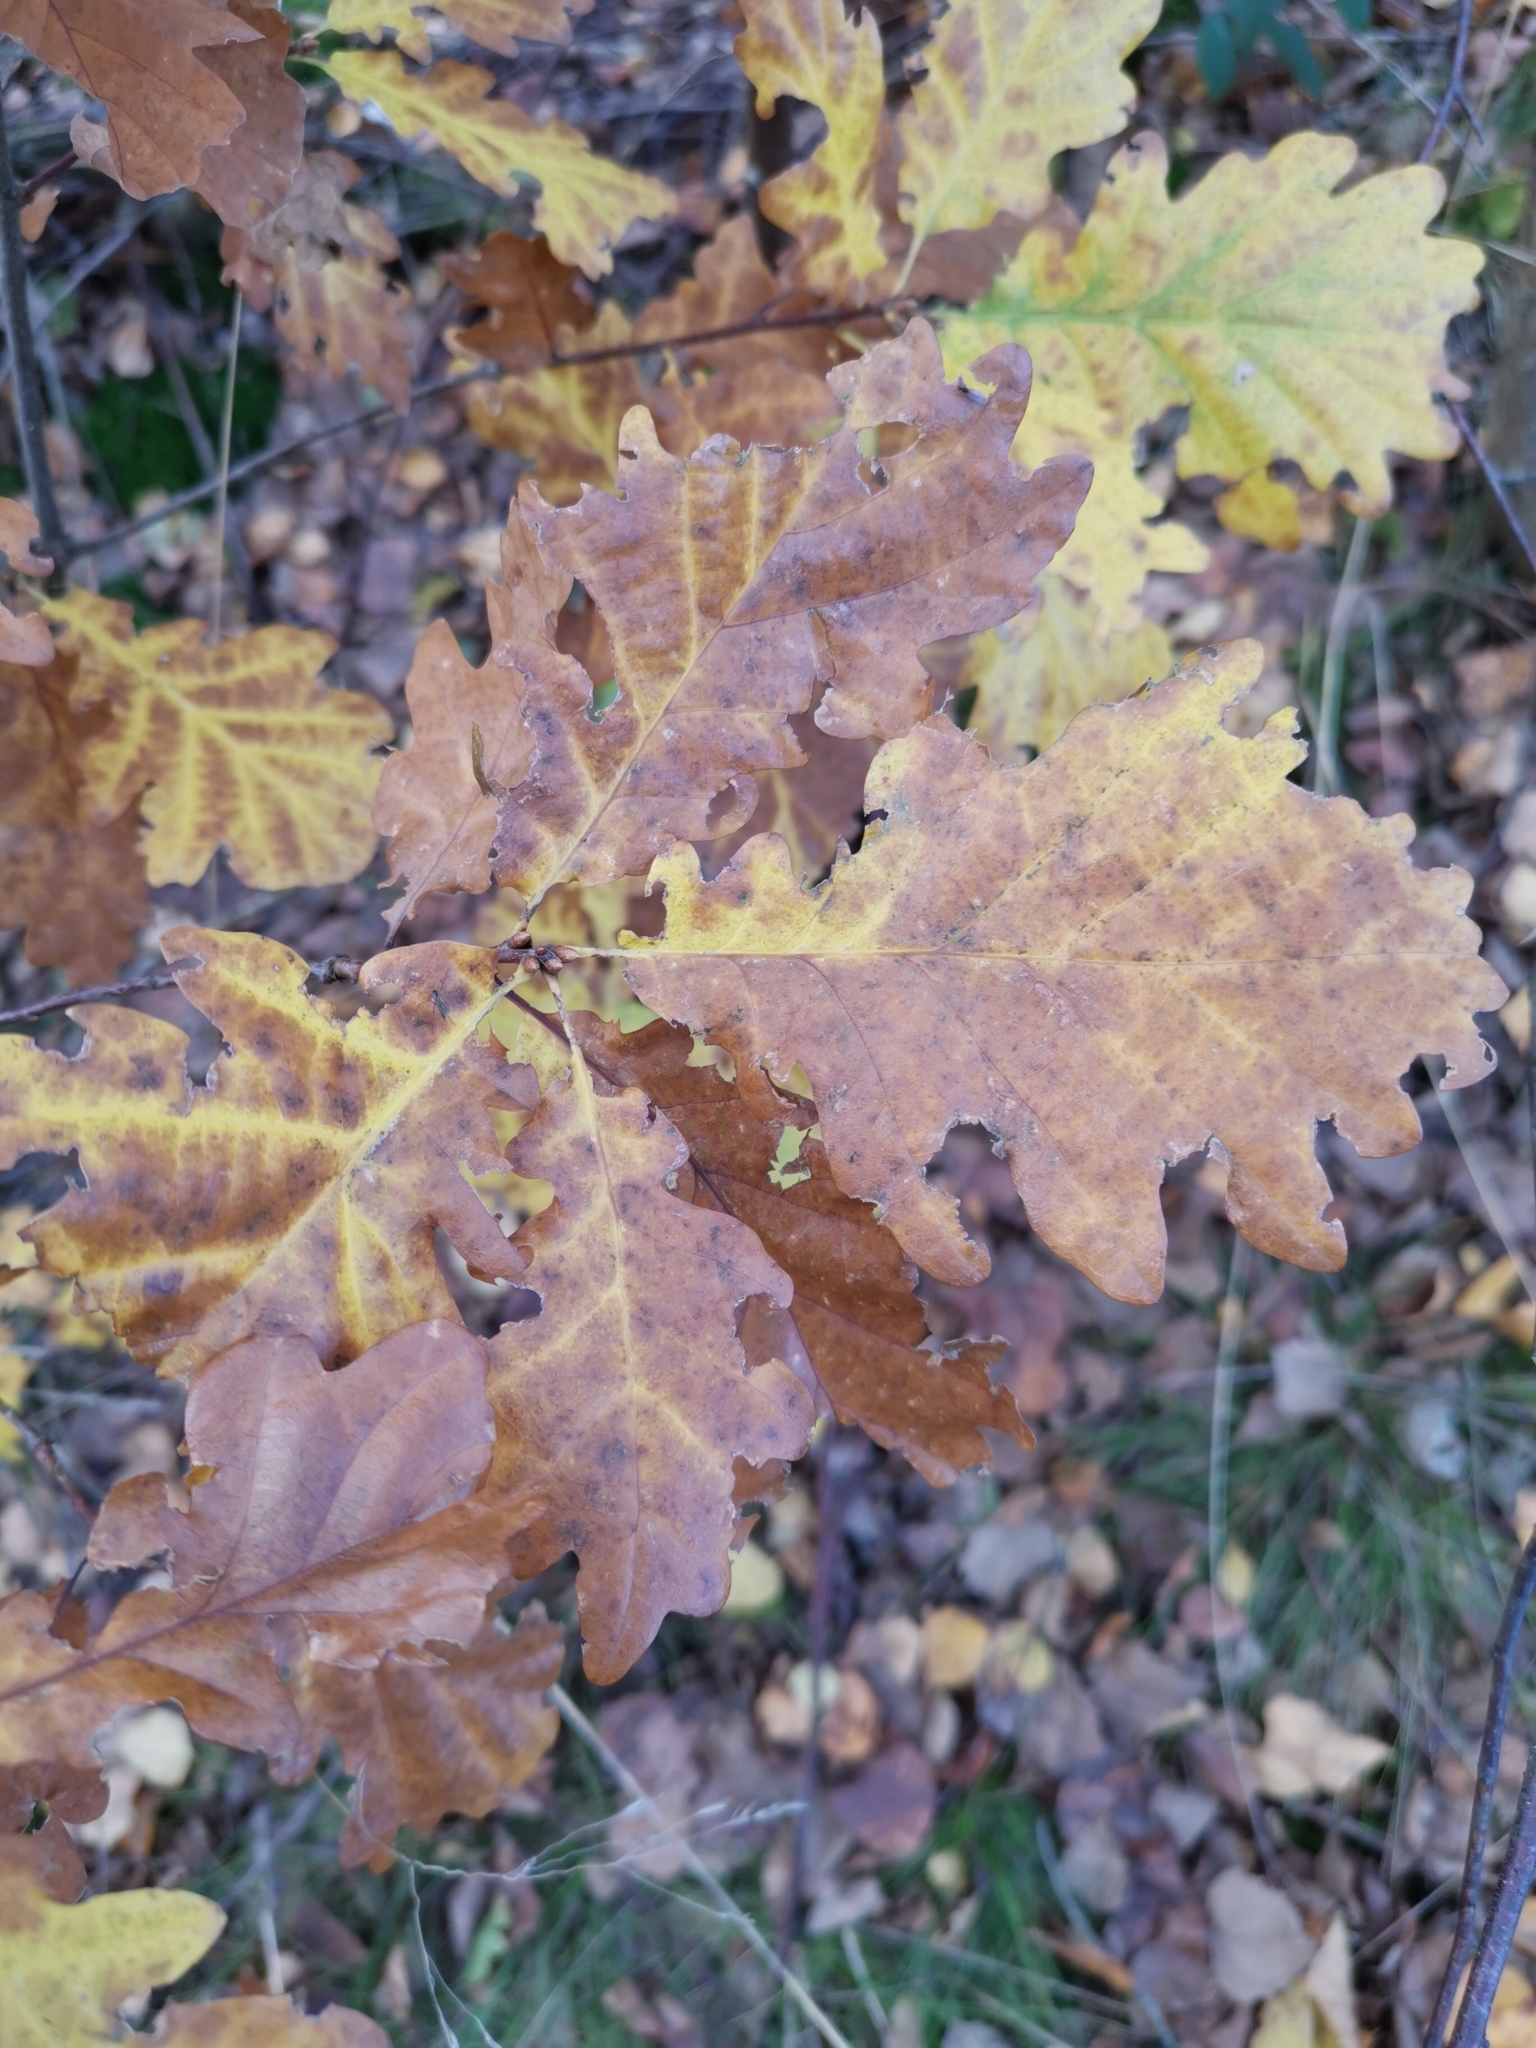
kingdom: Plantae
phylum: Tracheophyta
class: Magnoliopsida
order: Fagales
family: Fagaceae
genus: Quercus
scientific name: Quercus petraea
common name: Sessile oak
